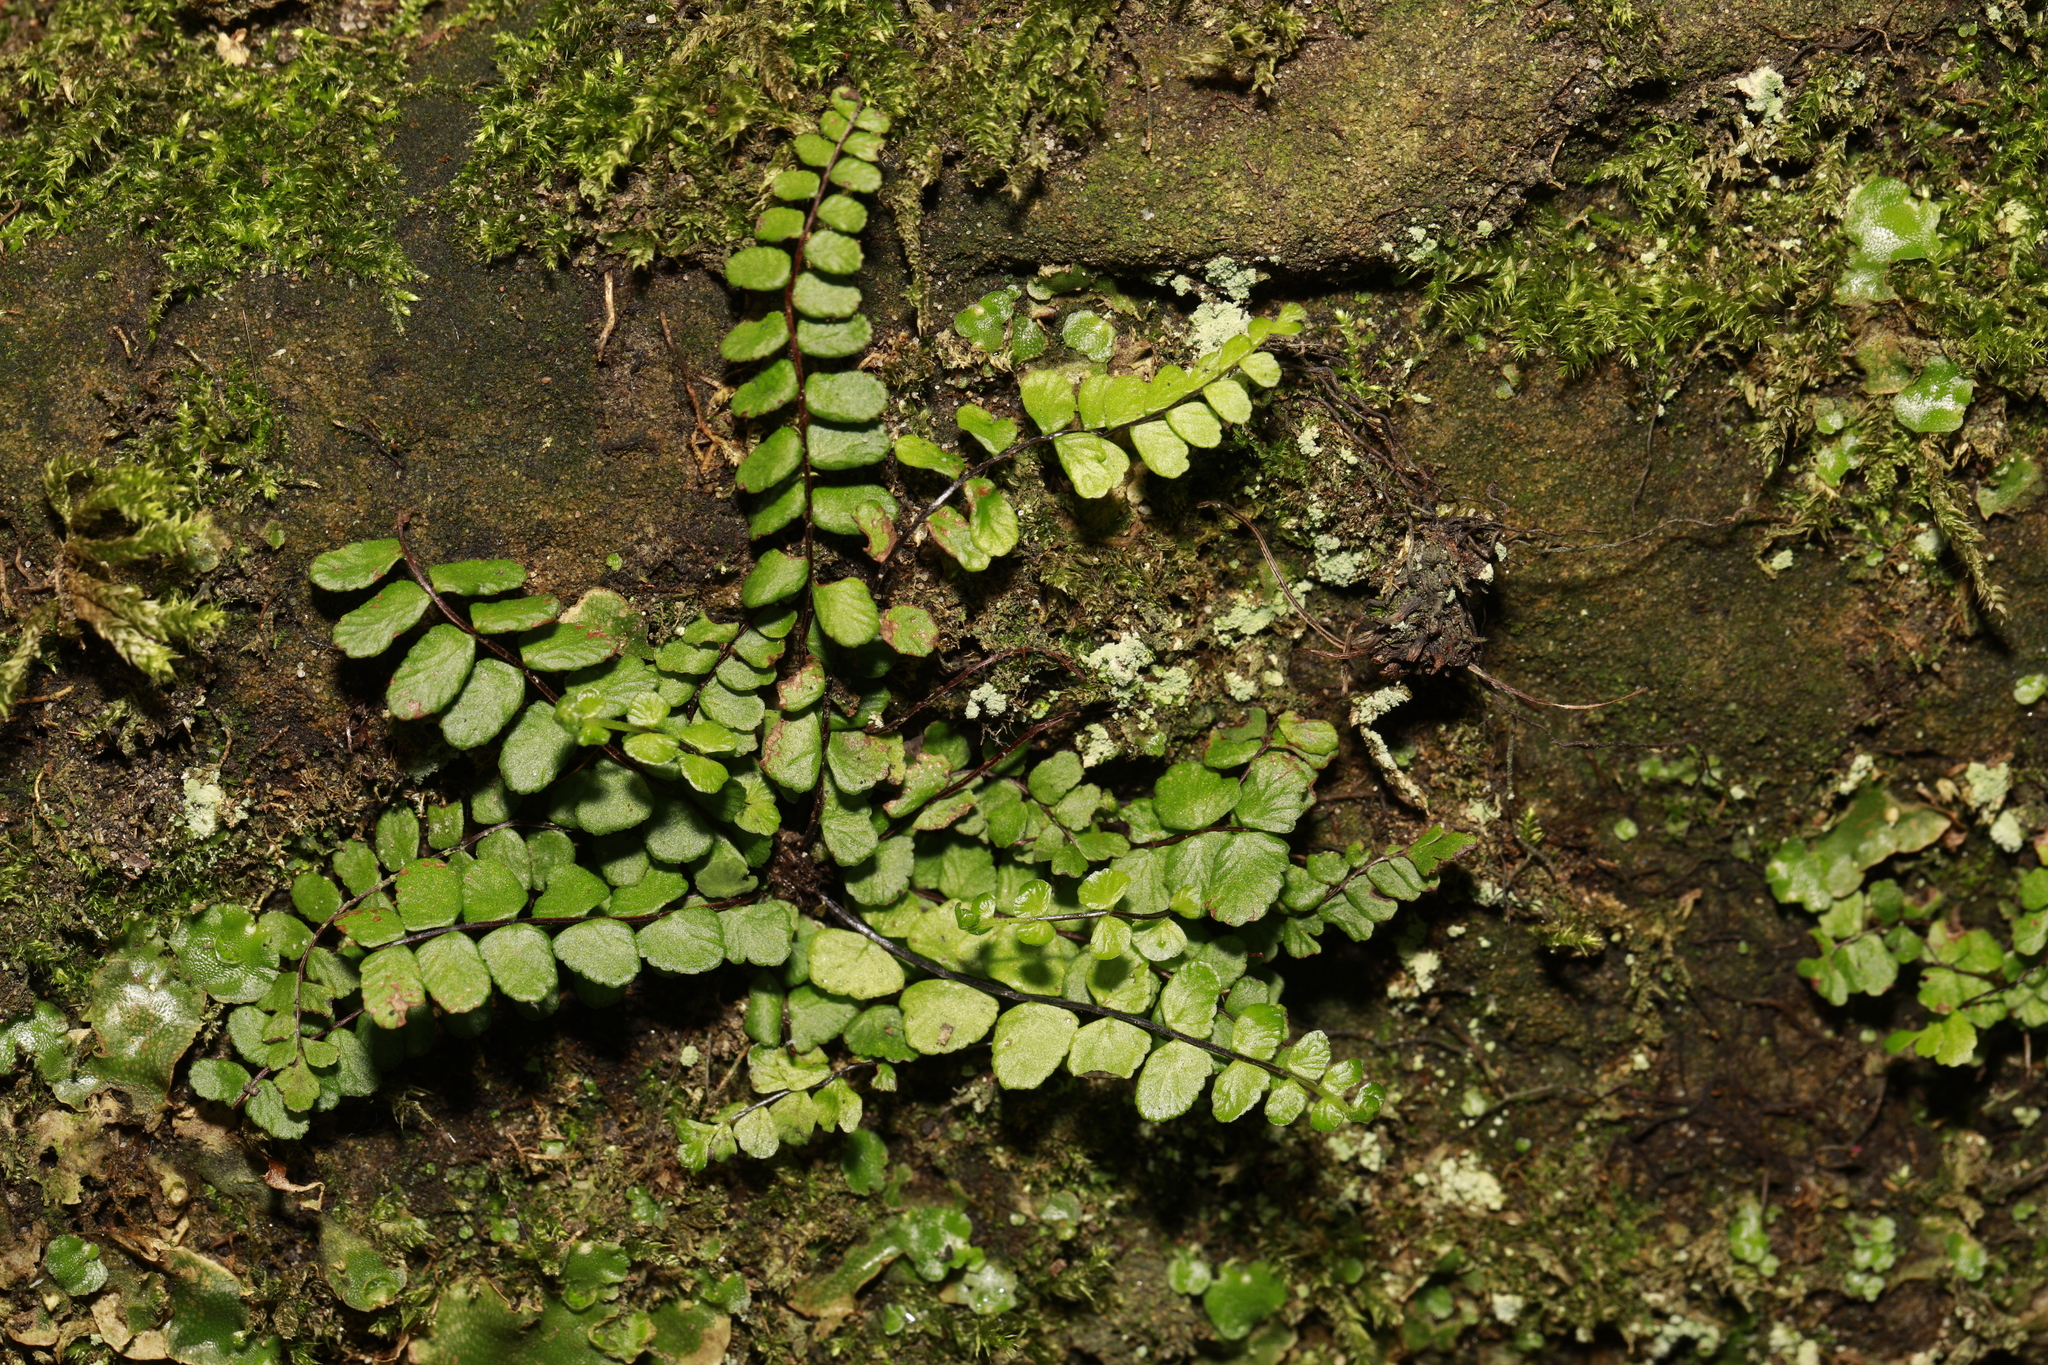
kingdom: Plantae
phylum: Tracheophyta
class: Polypodiopsida
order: Polypodiales
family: Aspleniaceae
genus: Asplenium
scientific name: Asplenium trichomanes
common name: Maidenhair spleenwort
